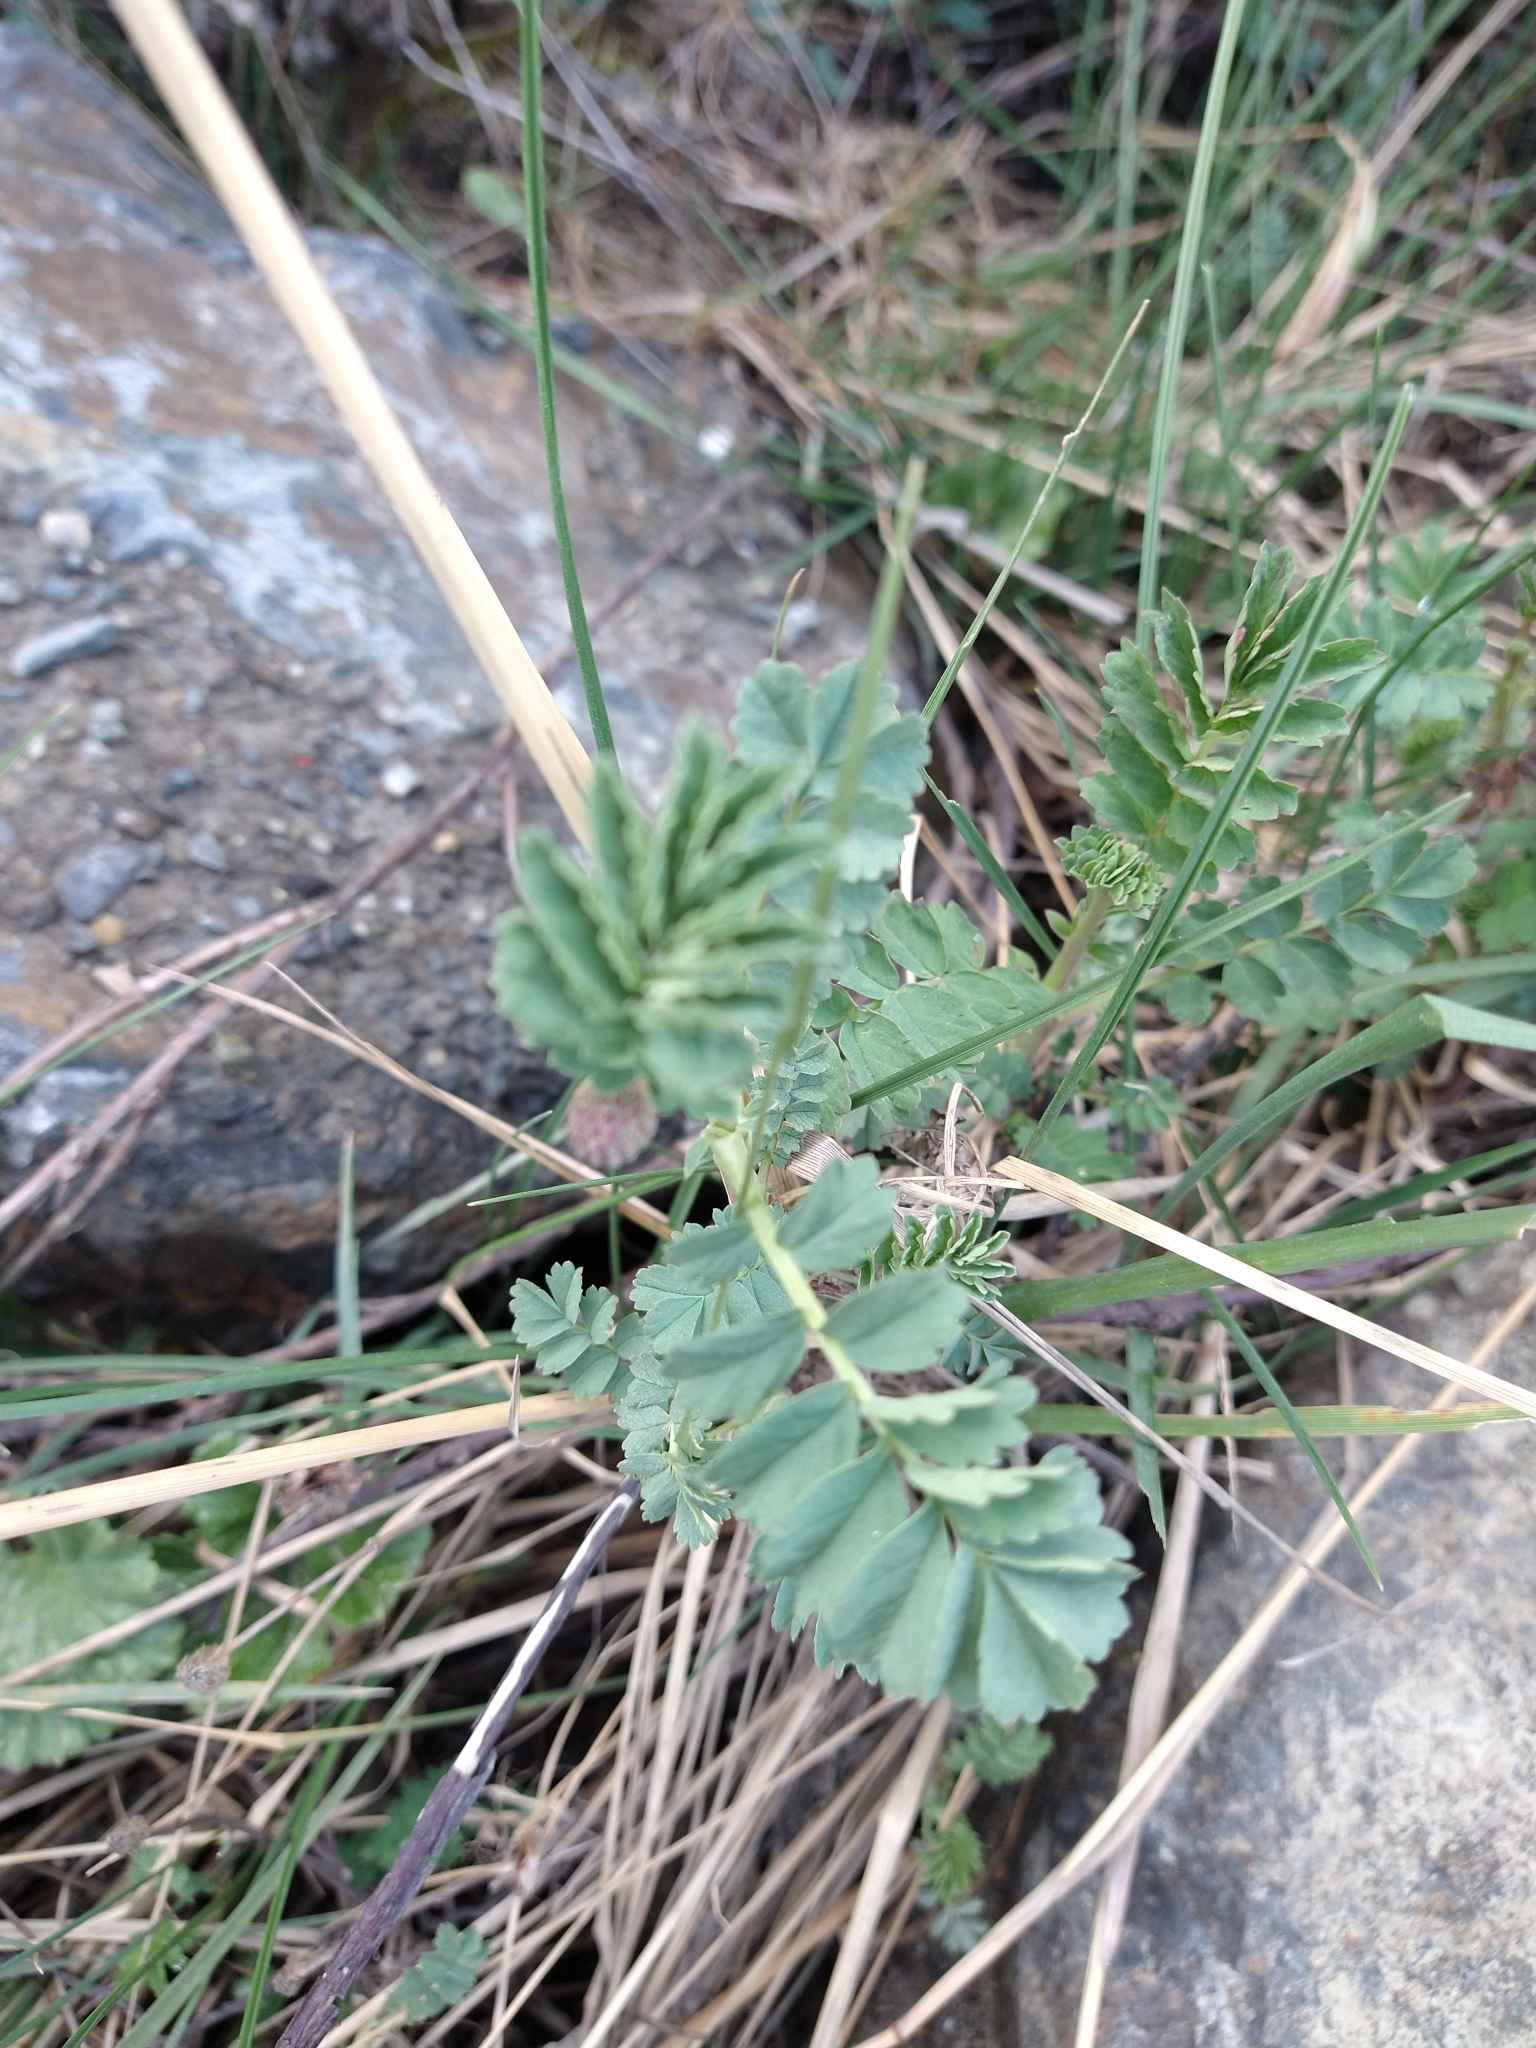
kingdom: Plantae
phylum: Tracheophyta
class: Magnoliopsida
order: Rosales
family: Rosaceae
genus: Acaena
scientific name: Acaena magellanica
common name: New zealand burr
